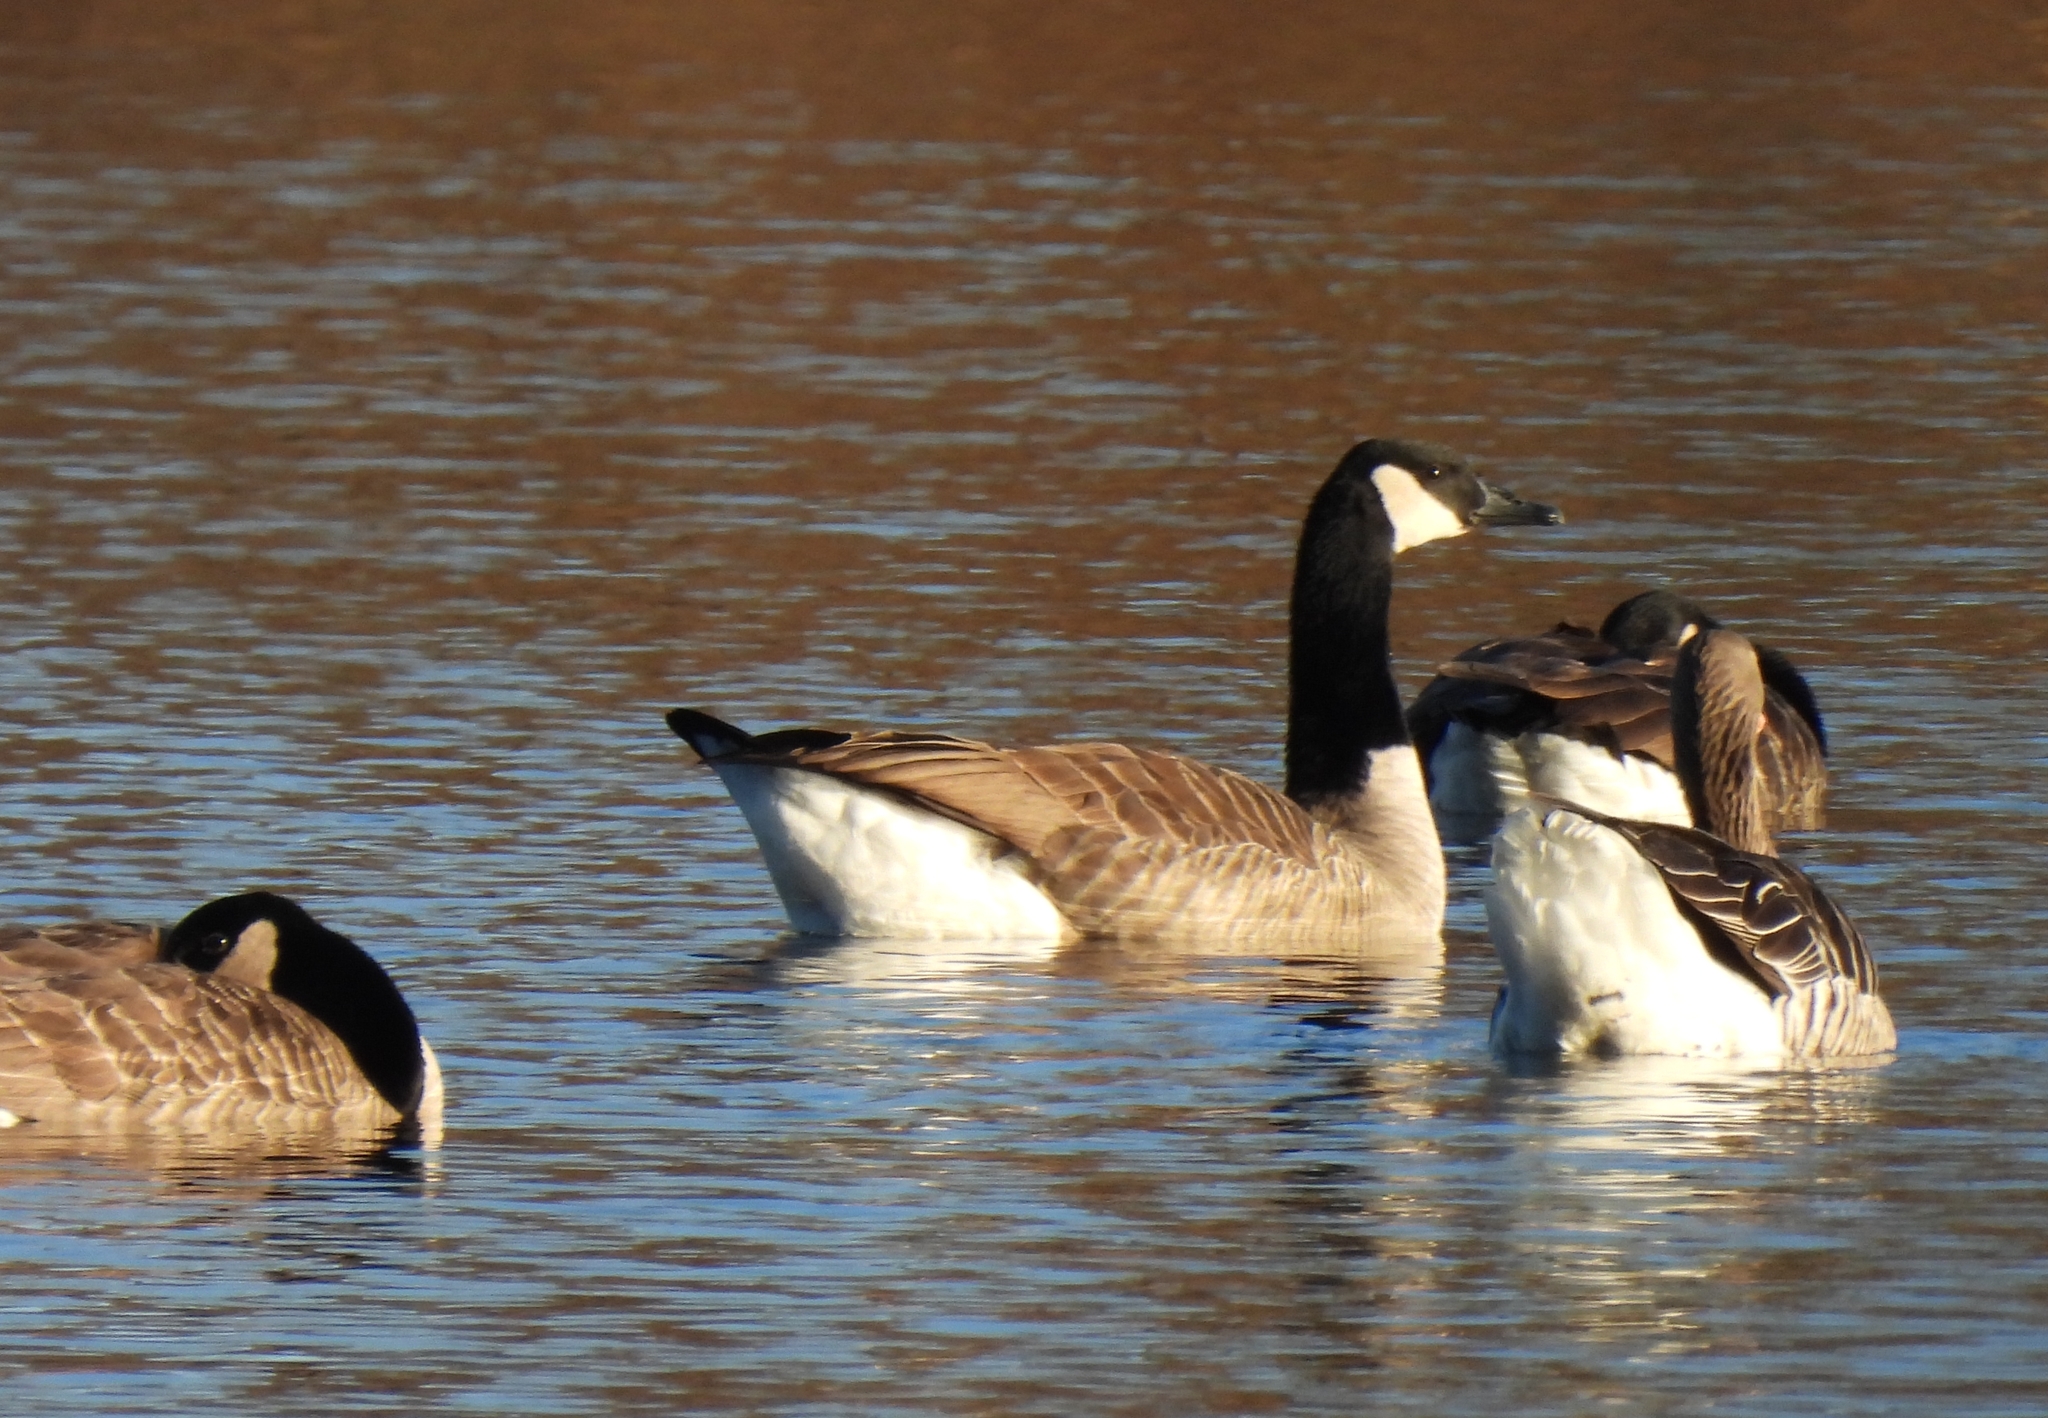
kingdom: Animalia
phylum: Chordata
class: Aves
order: Anseriformes
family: Anatidae
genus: Branta
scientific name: Branta canadensis
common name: Canada goose
